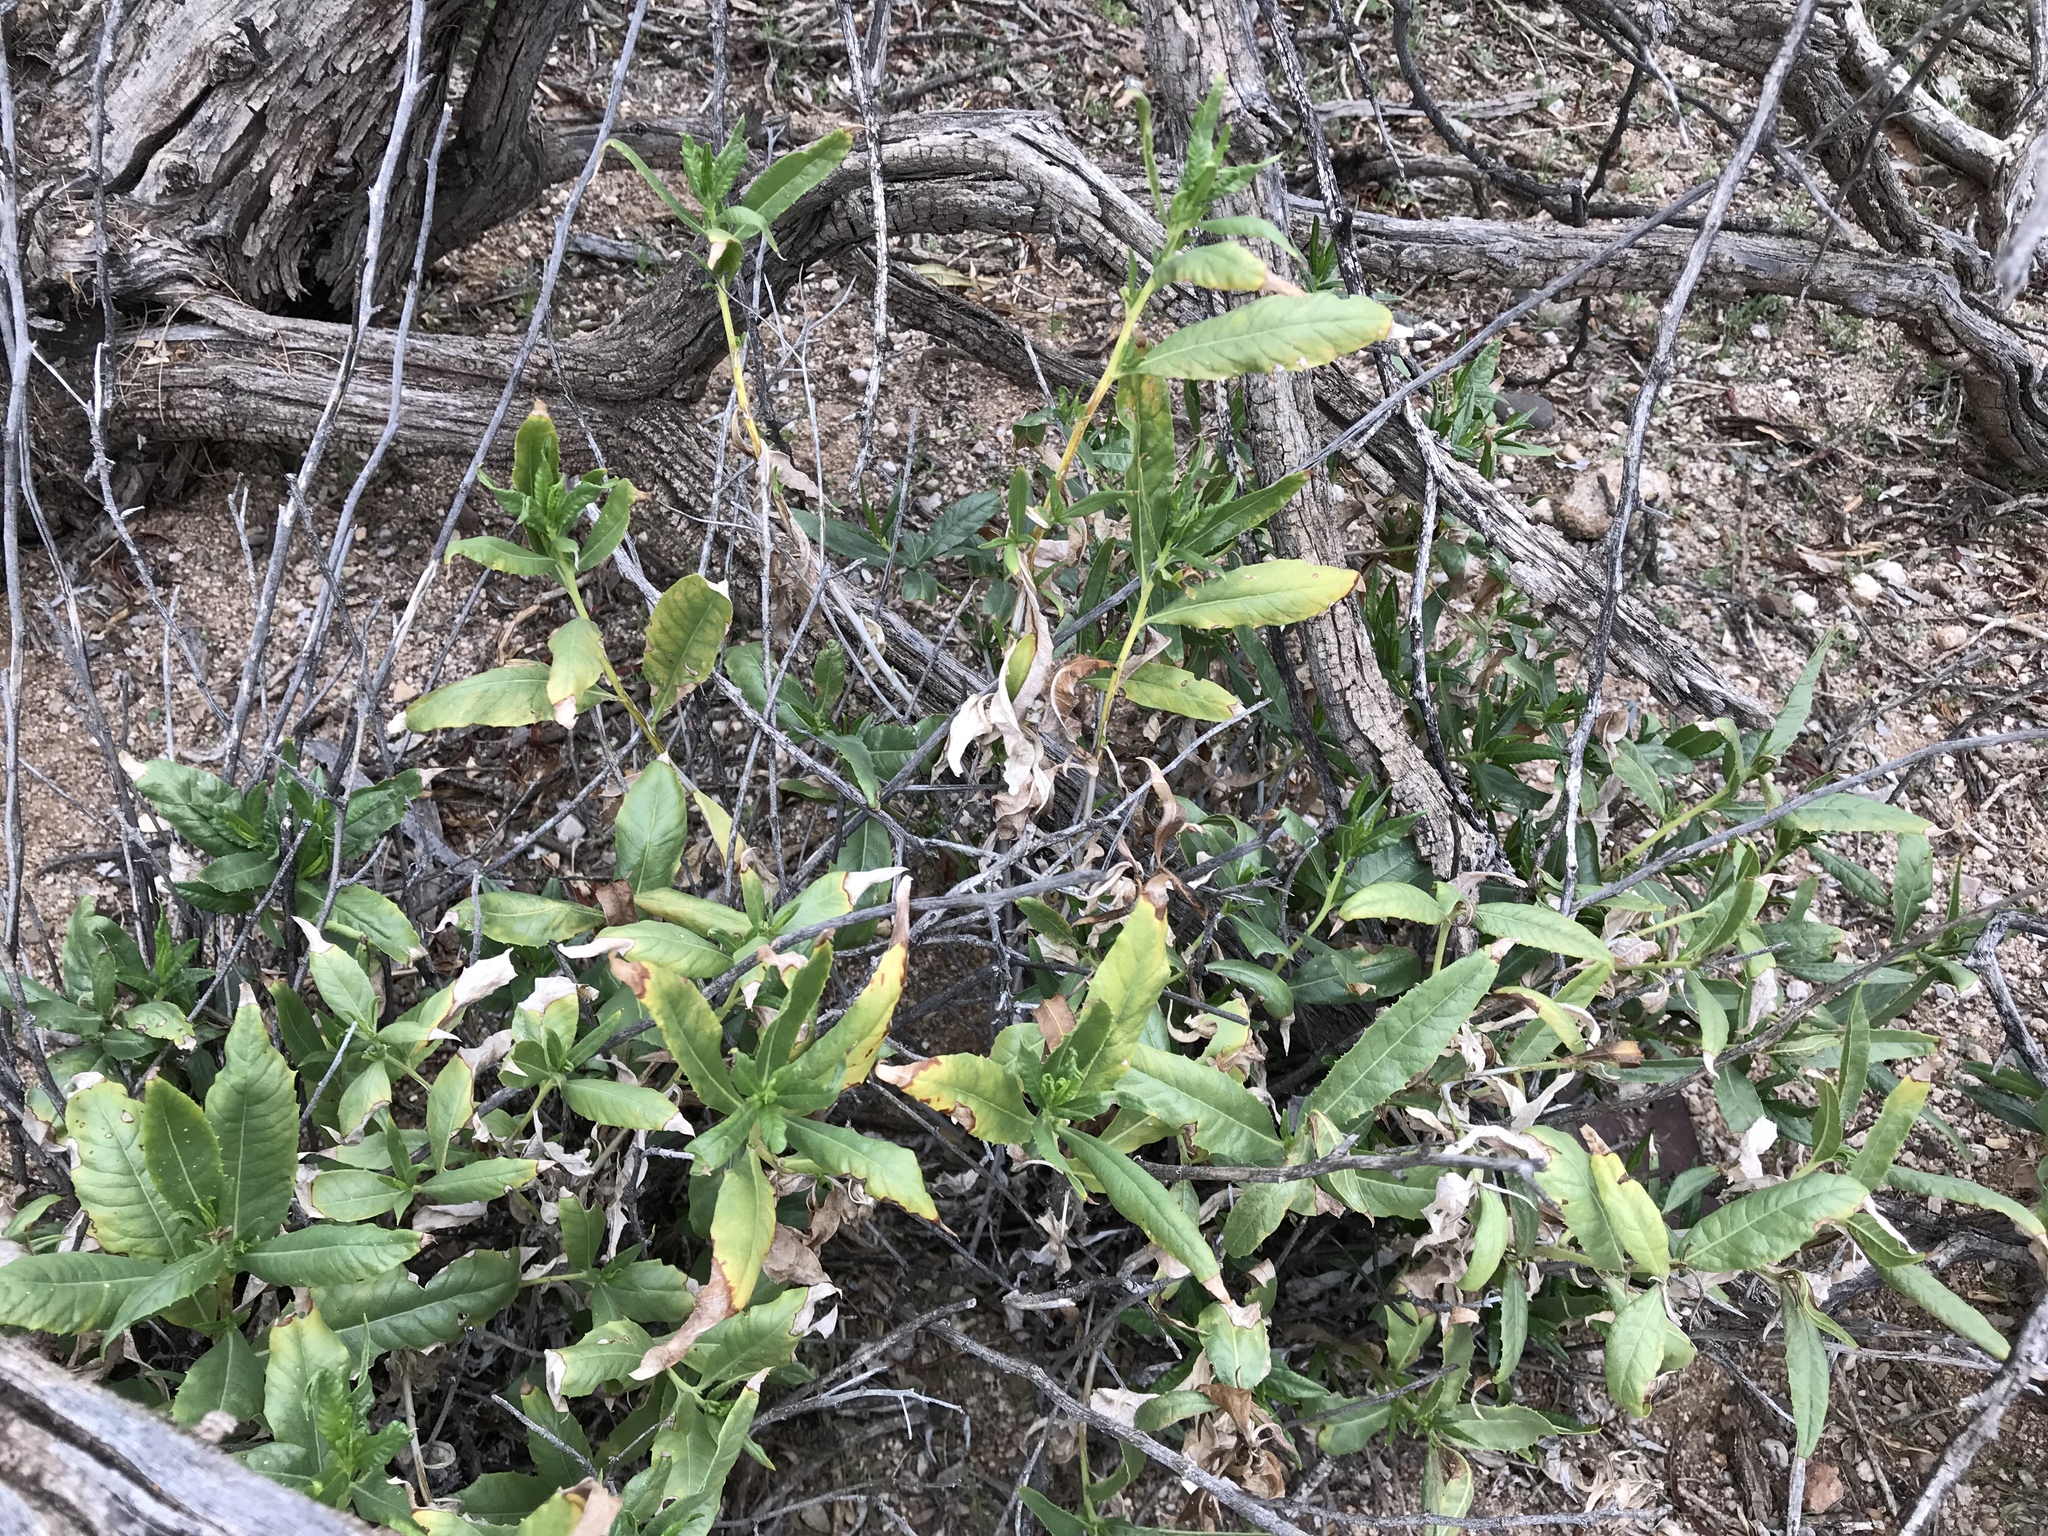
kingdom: Plantae
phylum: Tracheophyta
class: Magnoliopsida
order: Asterales
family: Asteraceae
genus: Trixis
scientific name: Trixis californica
